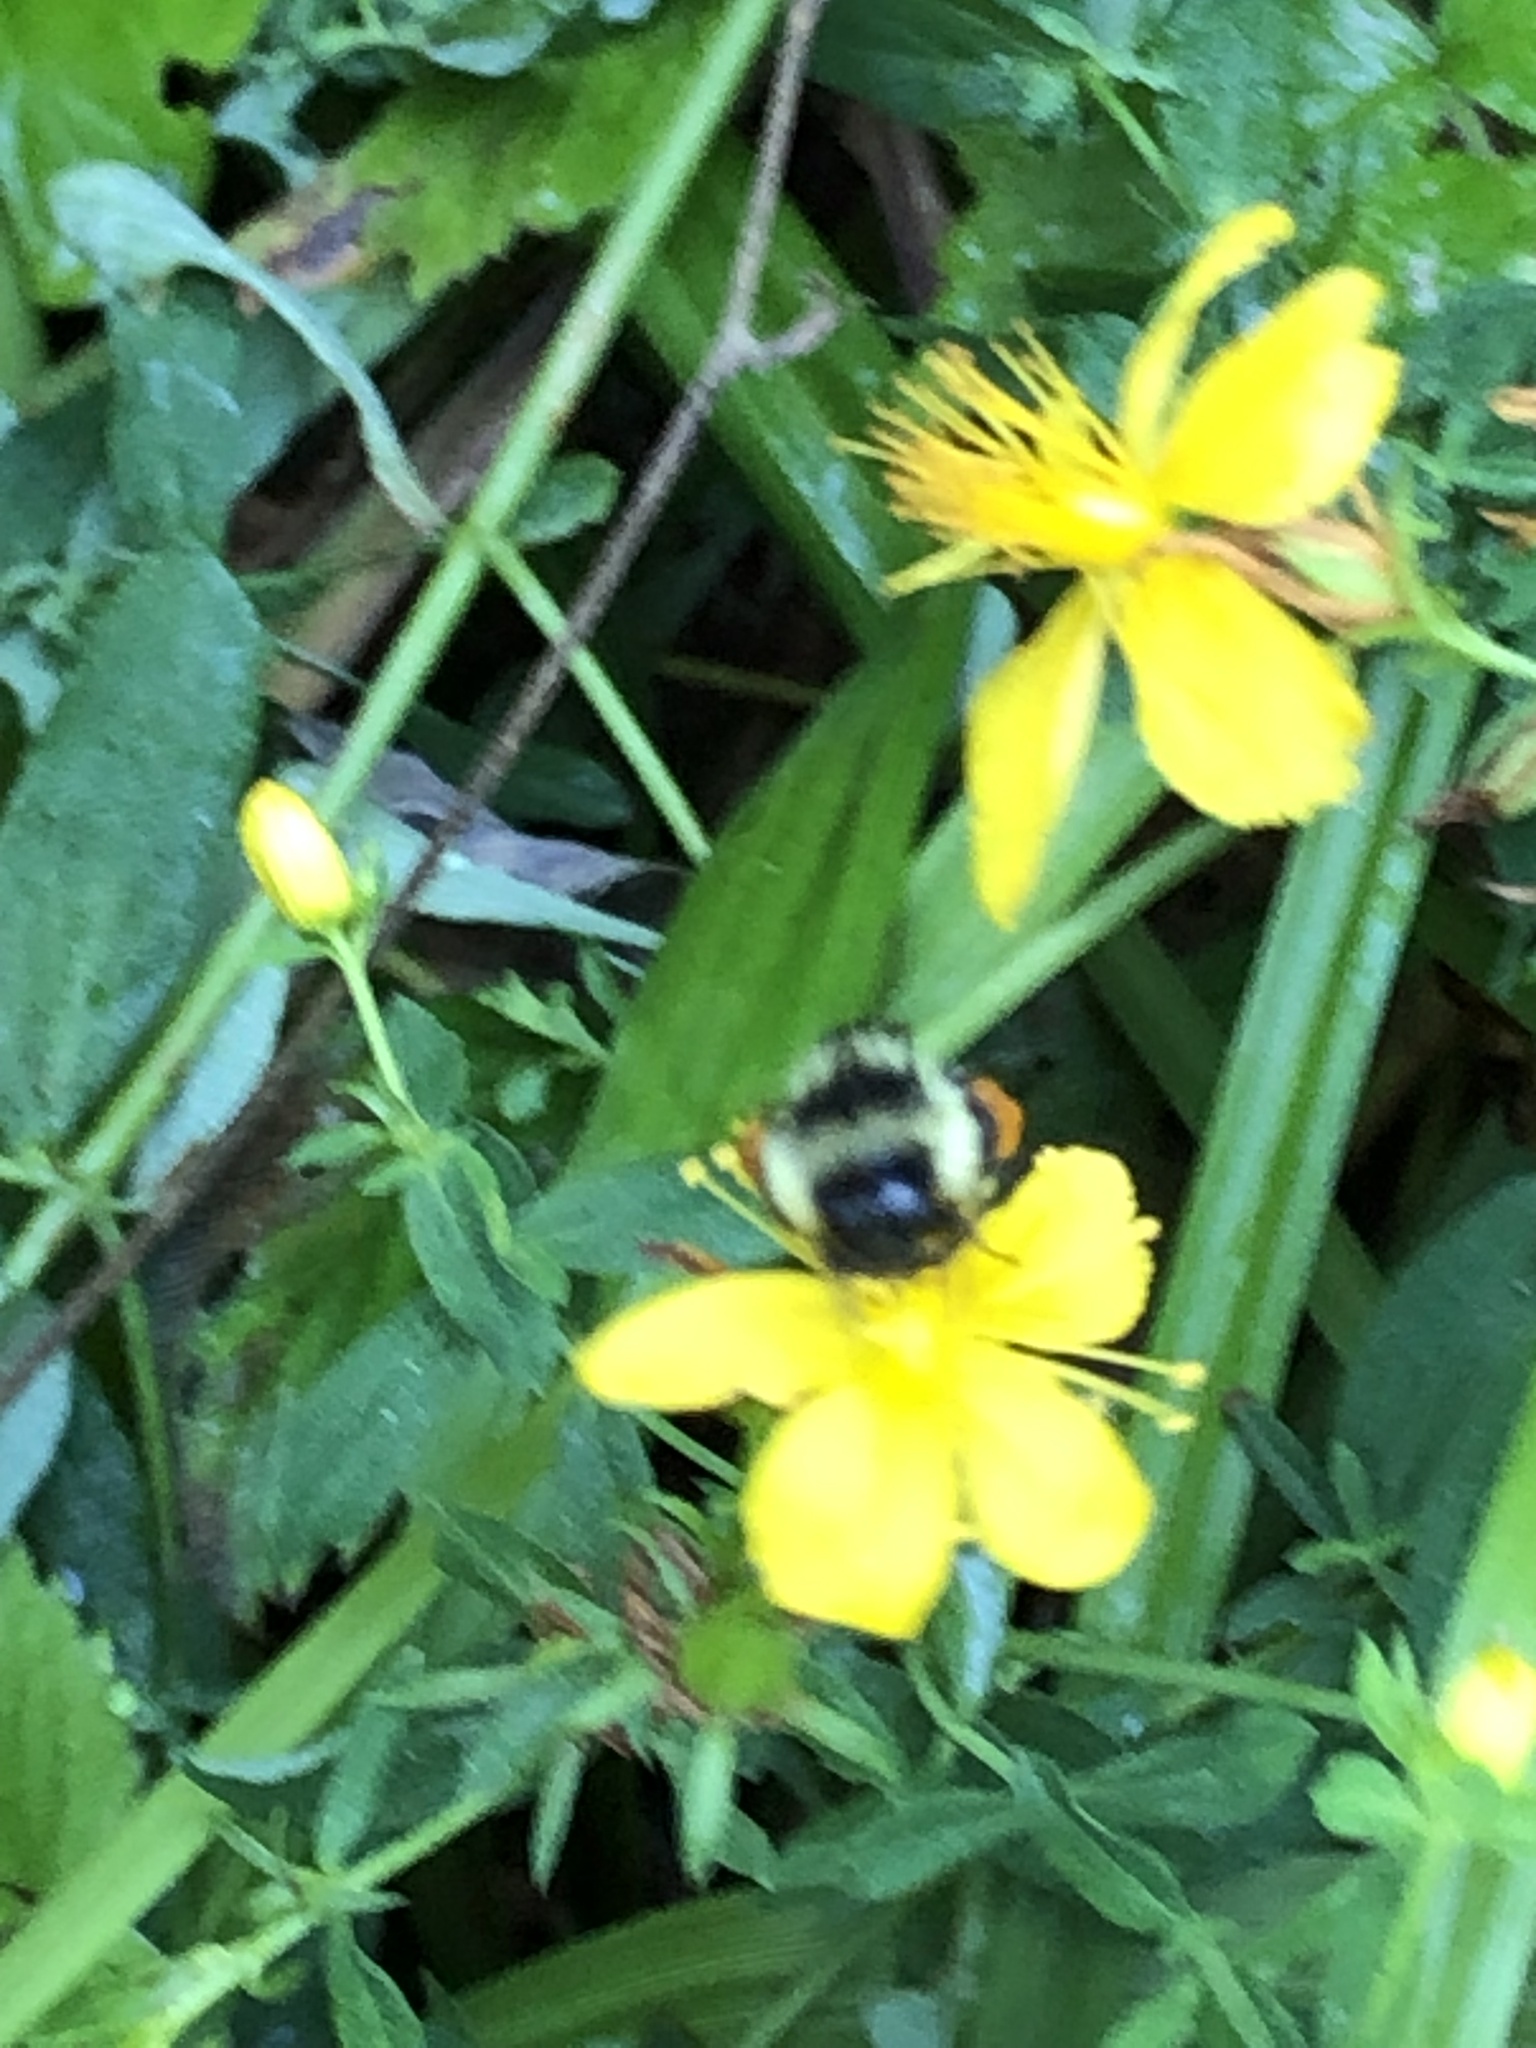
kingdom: Animalia
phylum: Arthropoda
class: Insecta
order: Hymenoptera
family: Apidae
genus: Bombus
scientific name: Bombus ternarius
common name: Tri-colored bumble bee
